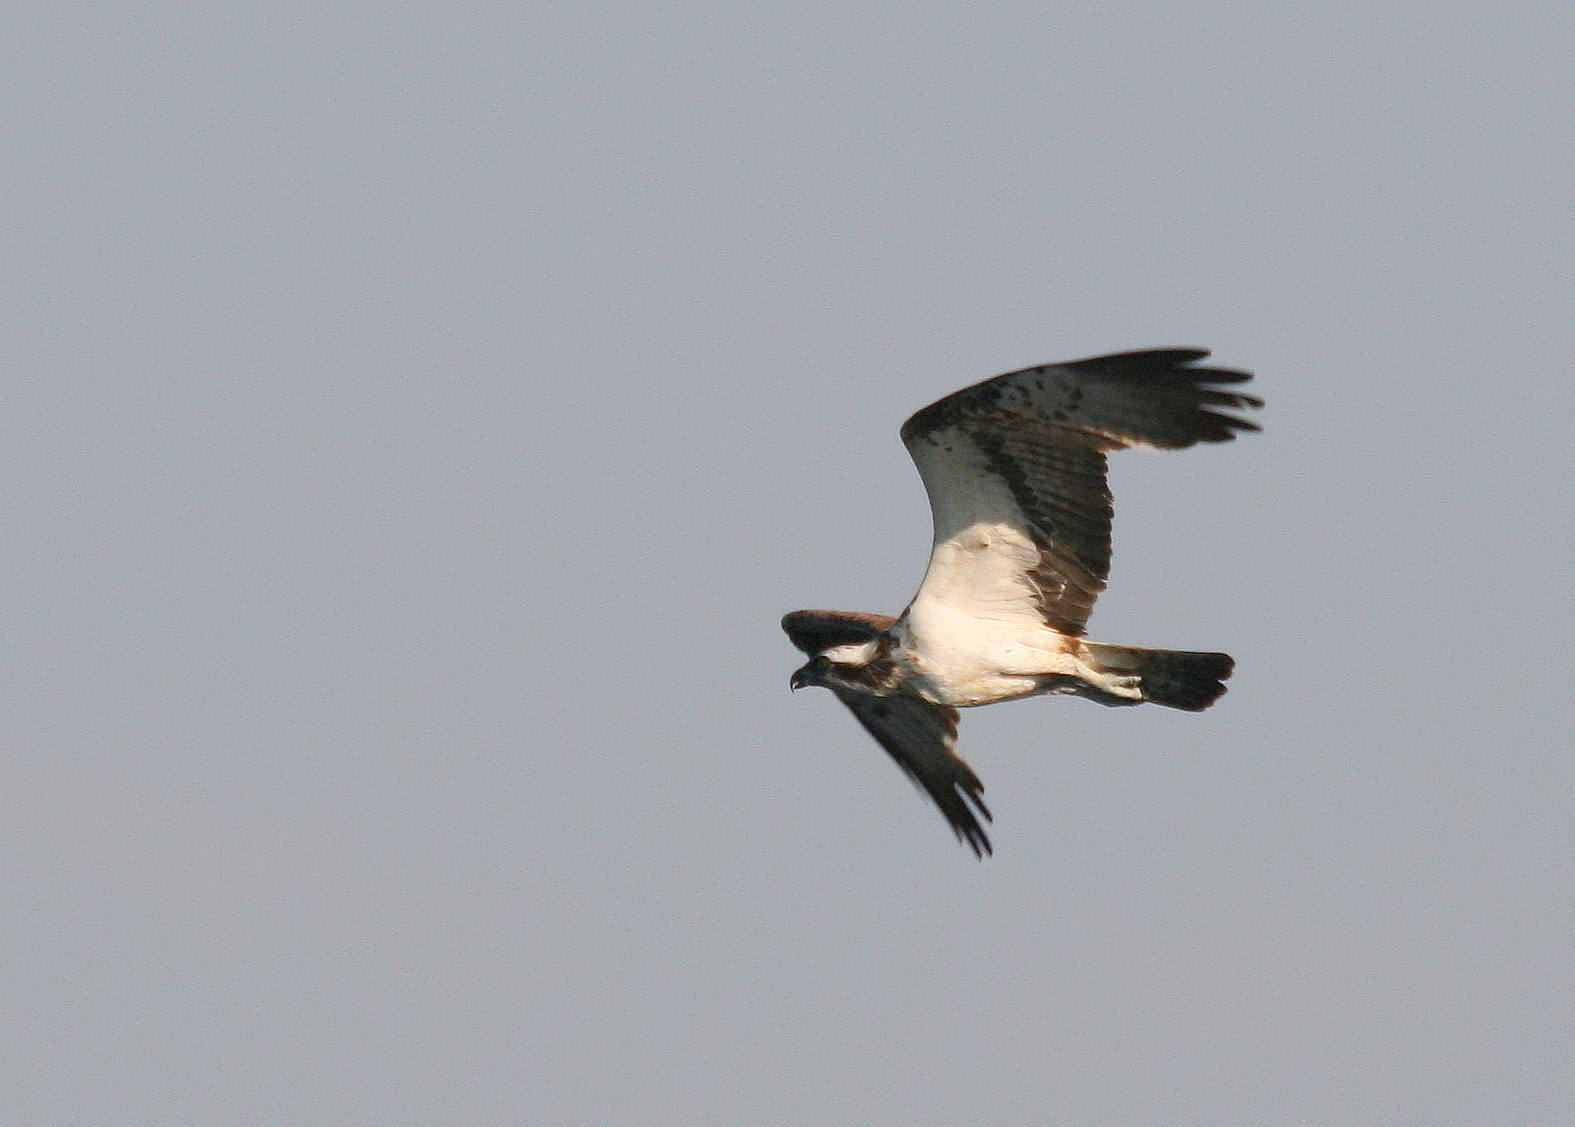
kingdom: Animalia
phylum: Chordata
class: Aves
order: Accipitriformes
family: Pandionidae
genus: Pandion
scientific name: Pandion haliaetus
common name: Osprey
